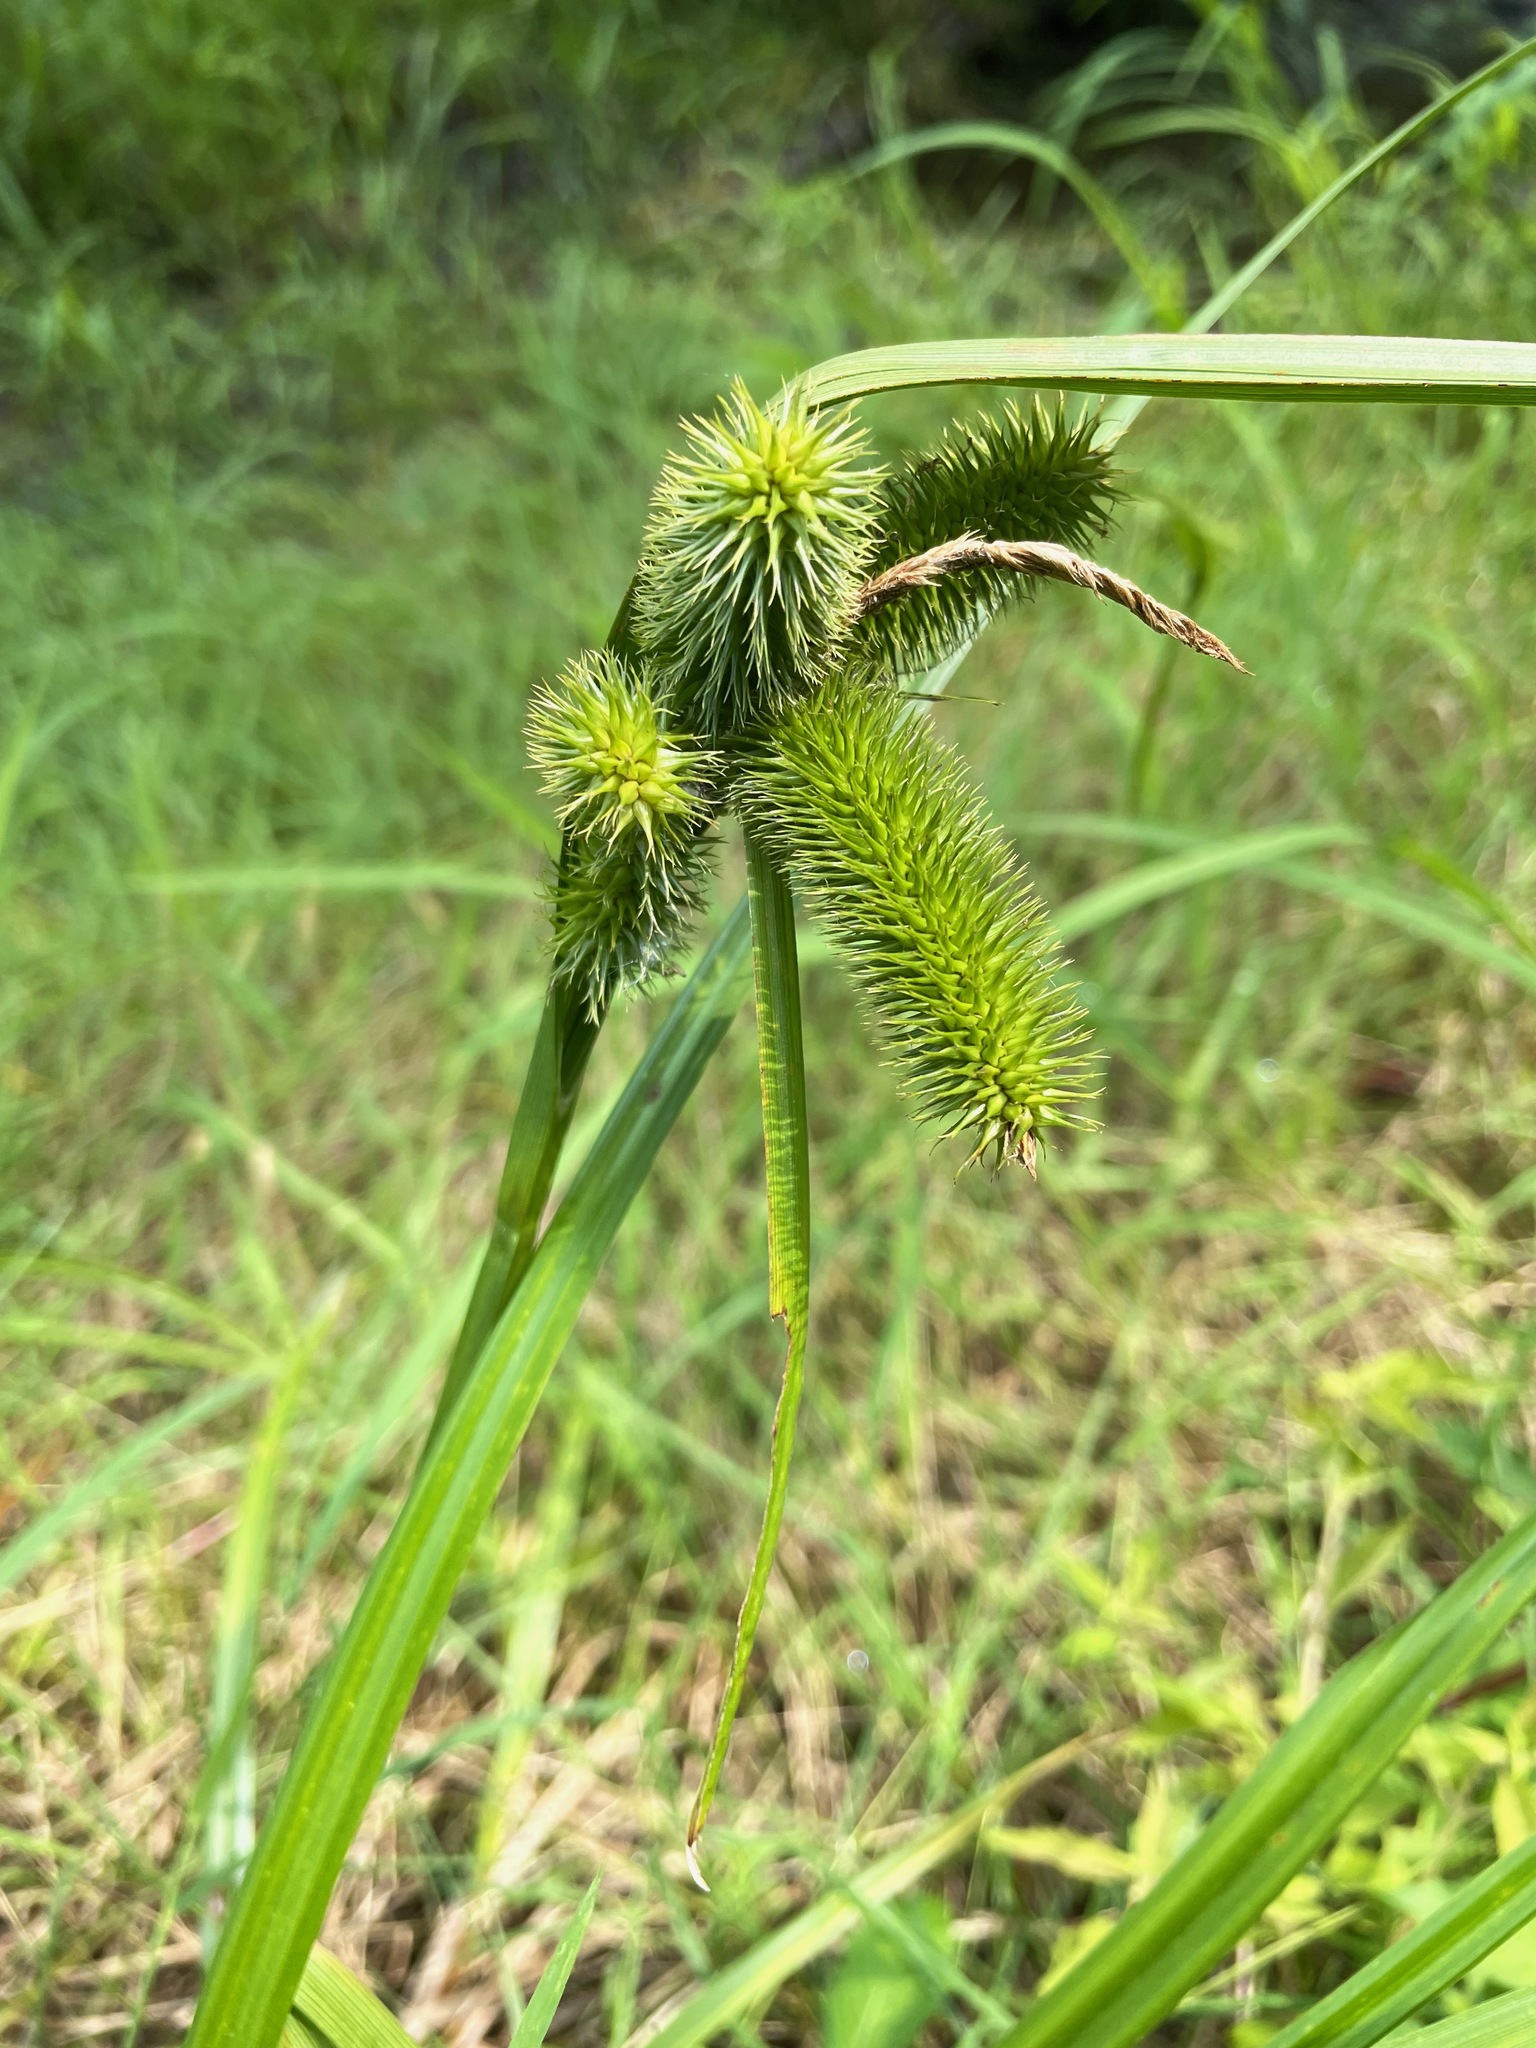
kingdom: Plantae
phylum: Tracheophyta
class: Liliopsida
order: Poales
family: Cyperaceae
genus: Carex
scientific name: Carex comosa
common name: Bristly sedge
